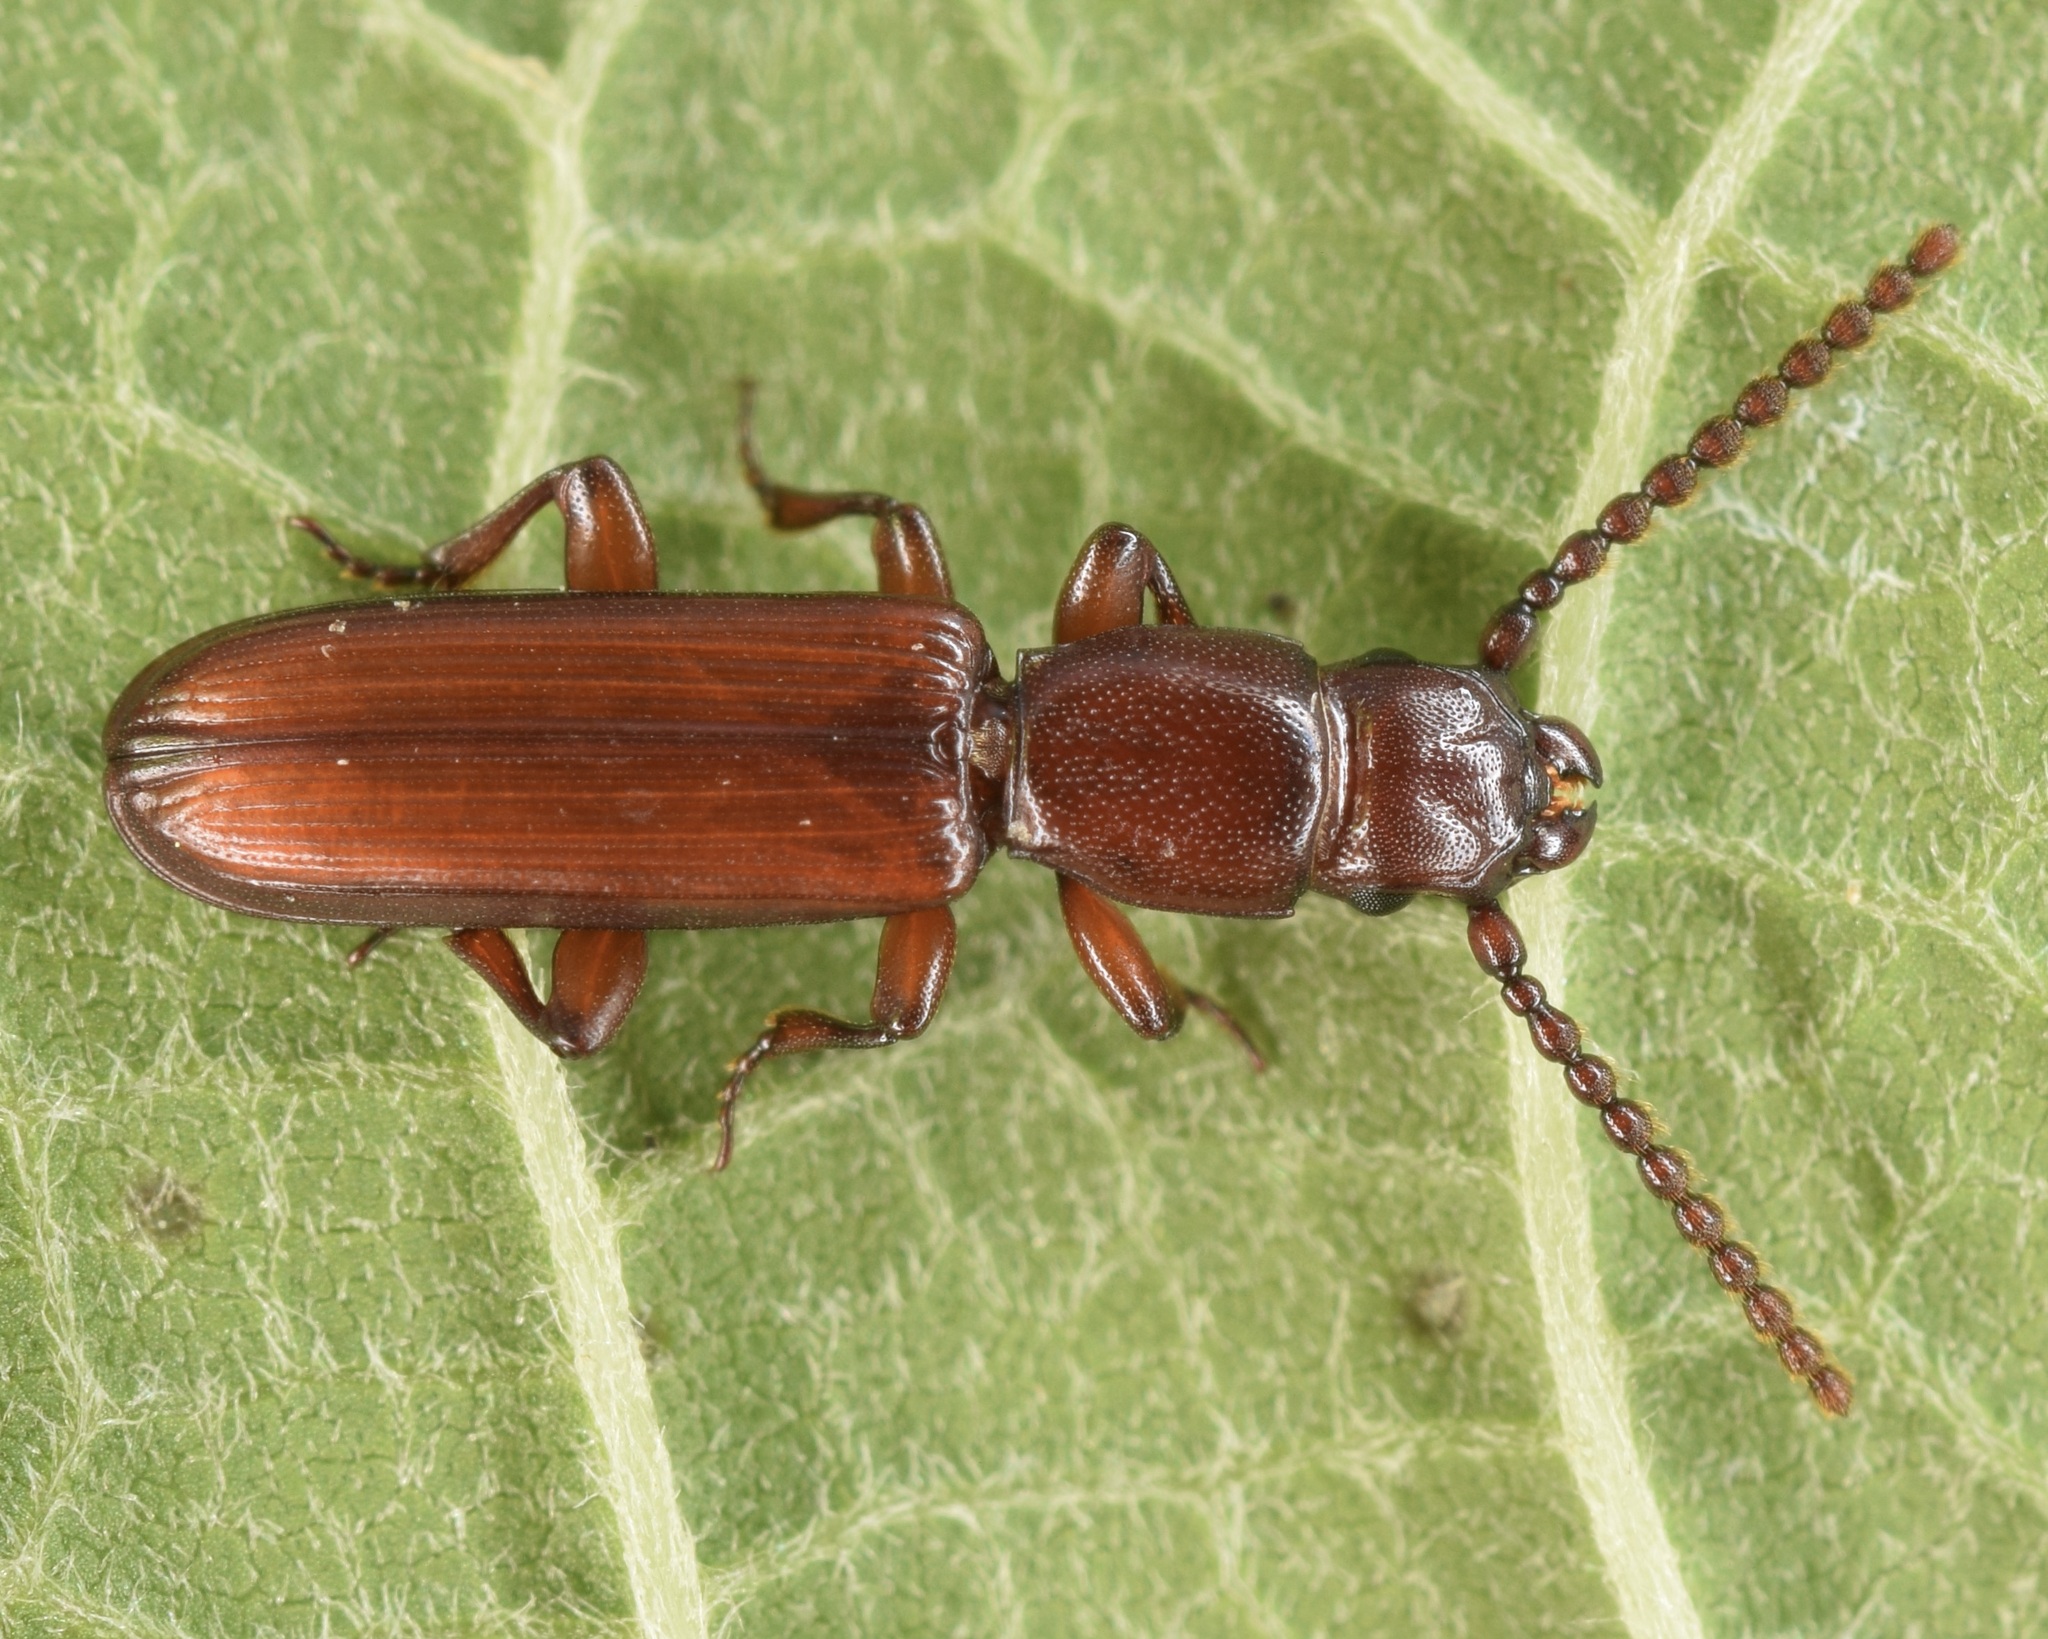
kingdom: Animalia
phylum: Arthropoda
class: Insecta
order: Coleoptera
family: Passandridae
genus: Catogenus
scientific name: Catogenus rufus
